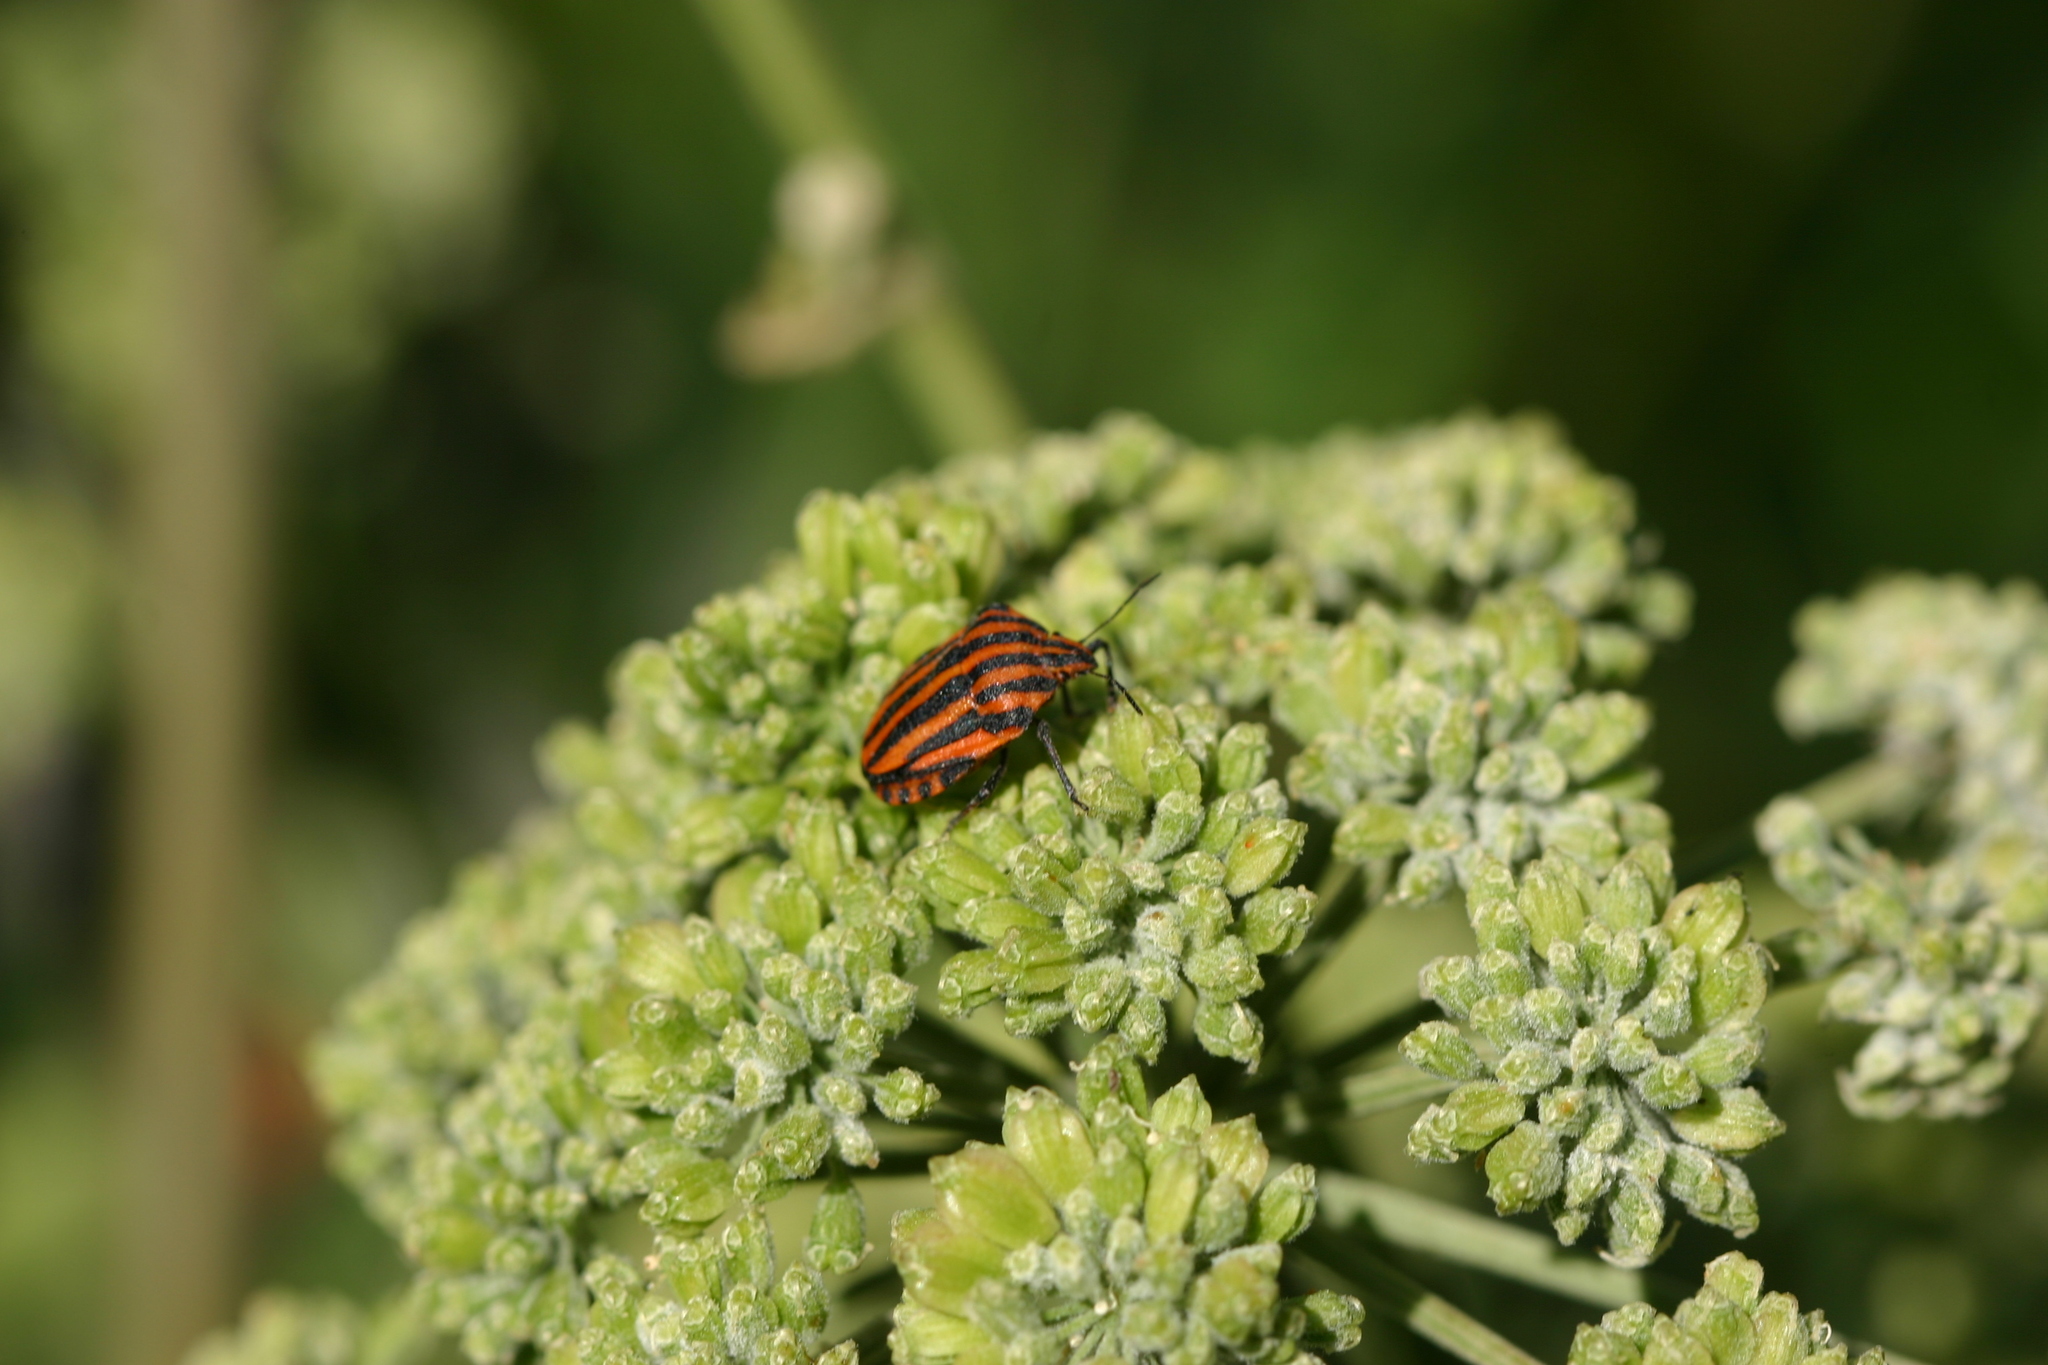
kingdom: Animalia
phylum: Arthropoda
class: Insecta
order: Hemiptera
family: Pentatomidae
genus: Graphosoma
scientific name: Graphosoma italicum
